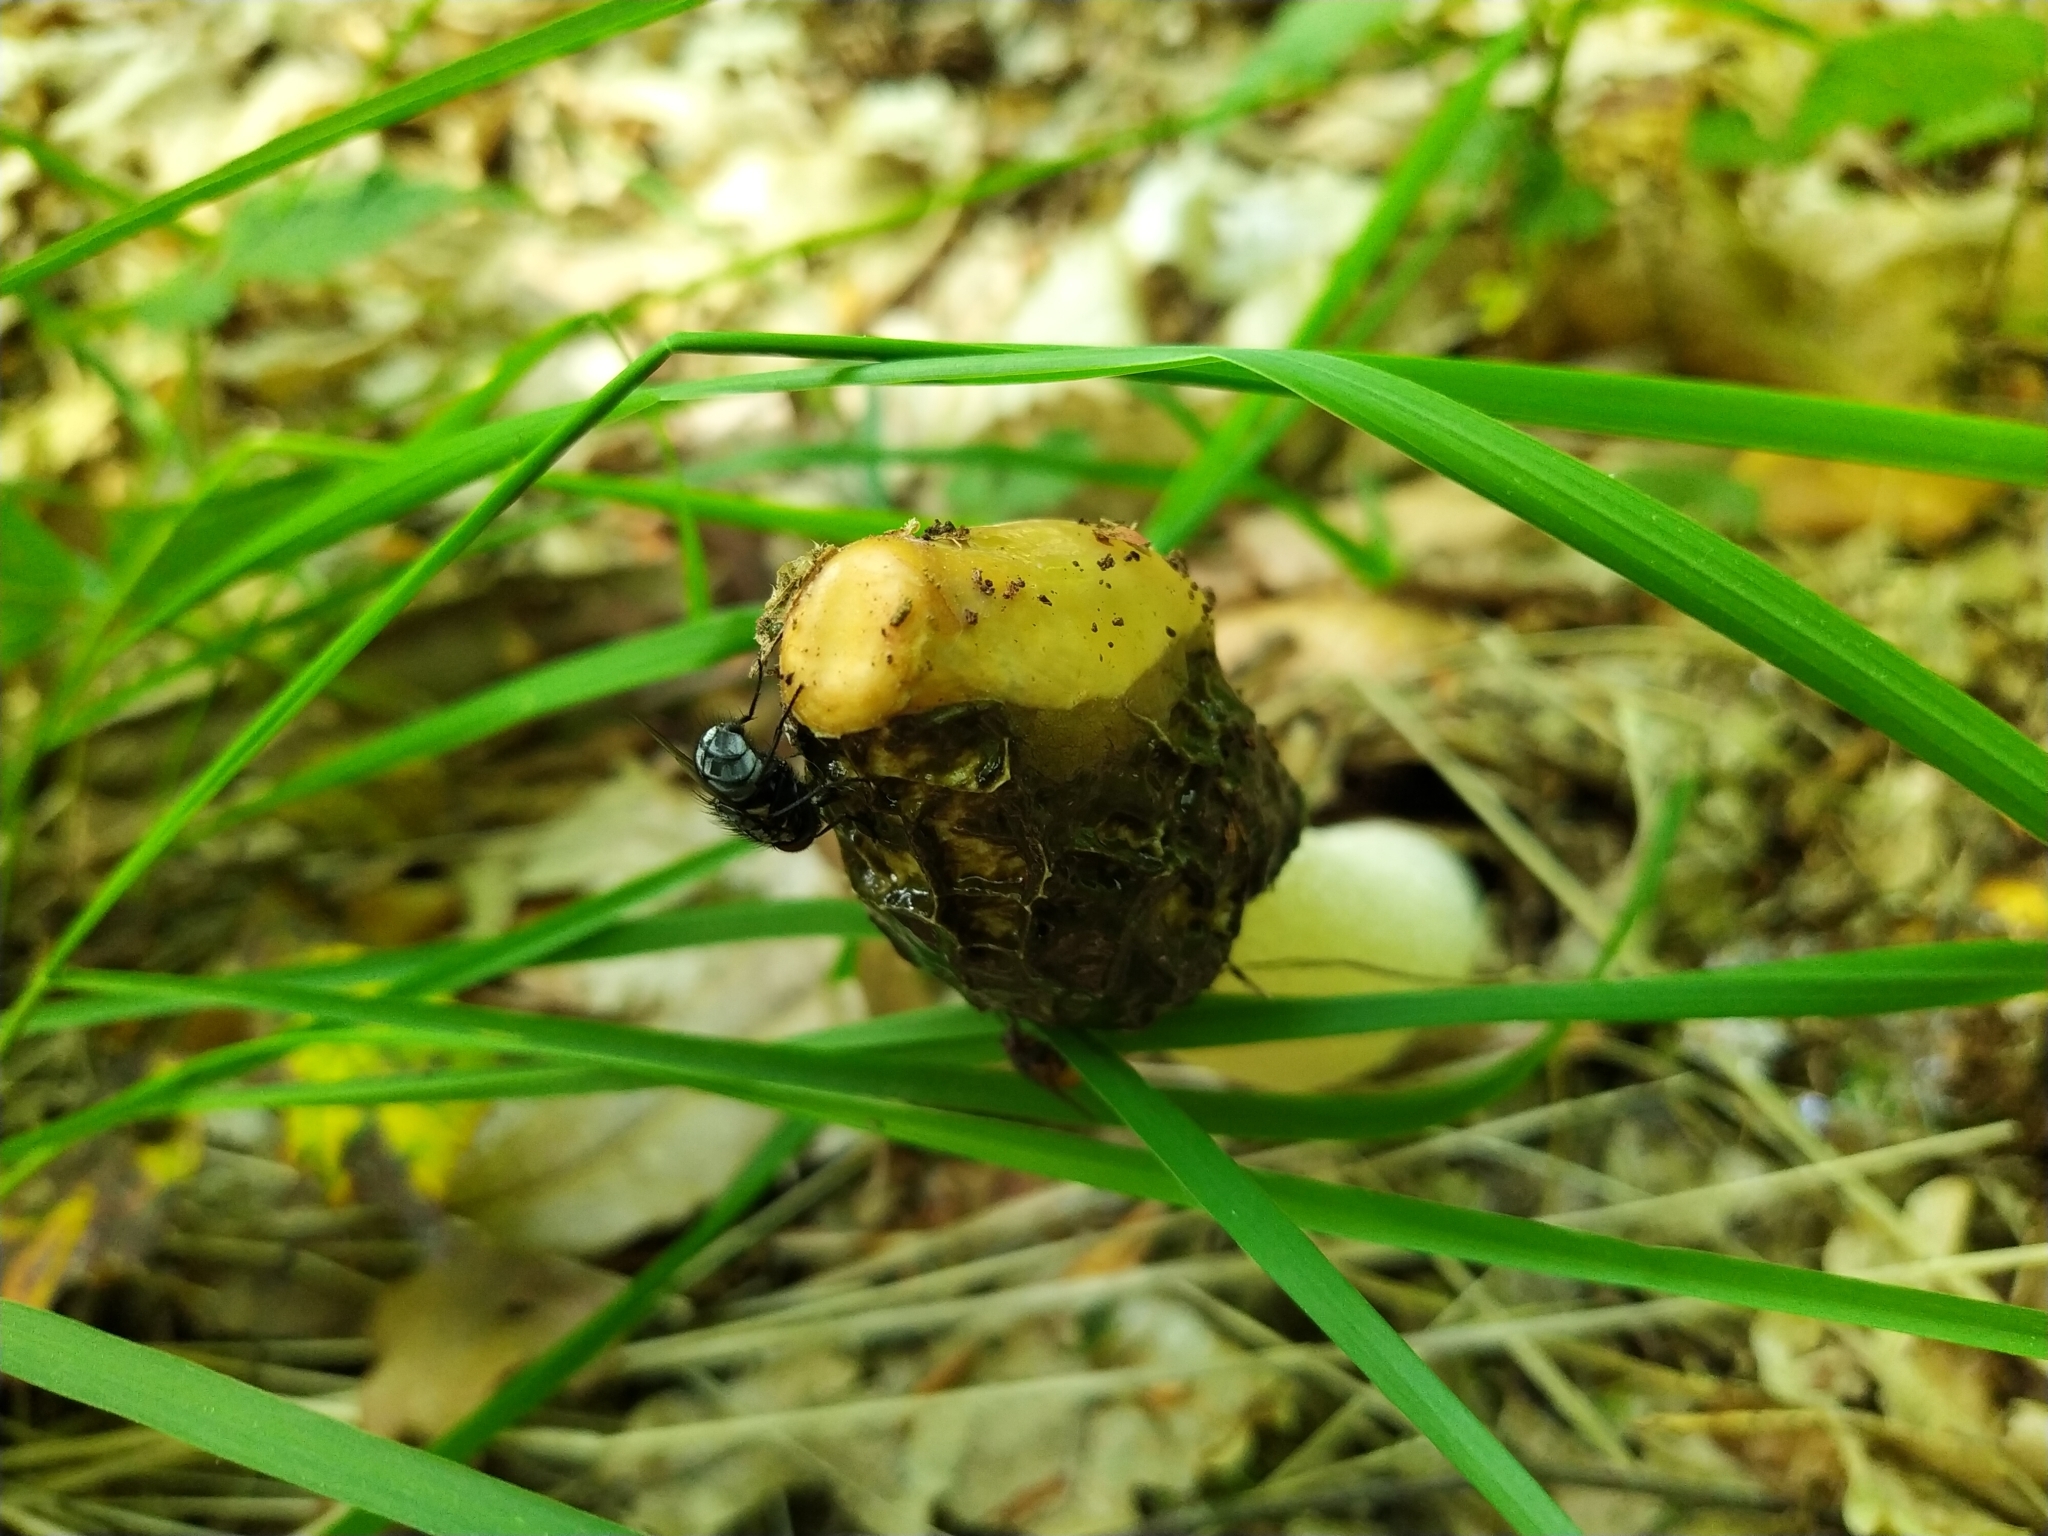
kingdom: Fungi
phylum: Basidiomycota
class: Agaricomycetes
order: Phallales
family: Phallaceae
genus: Phallus
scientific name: Phallus impudicus
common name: Common stinkhorn
